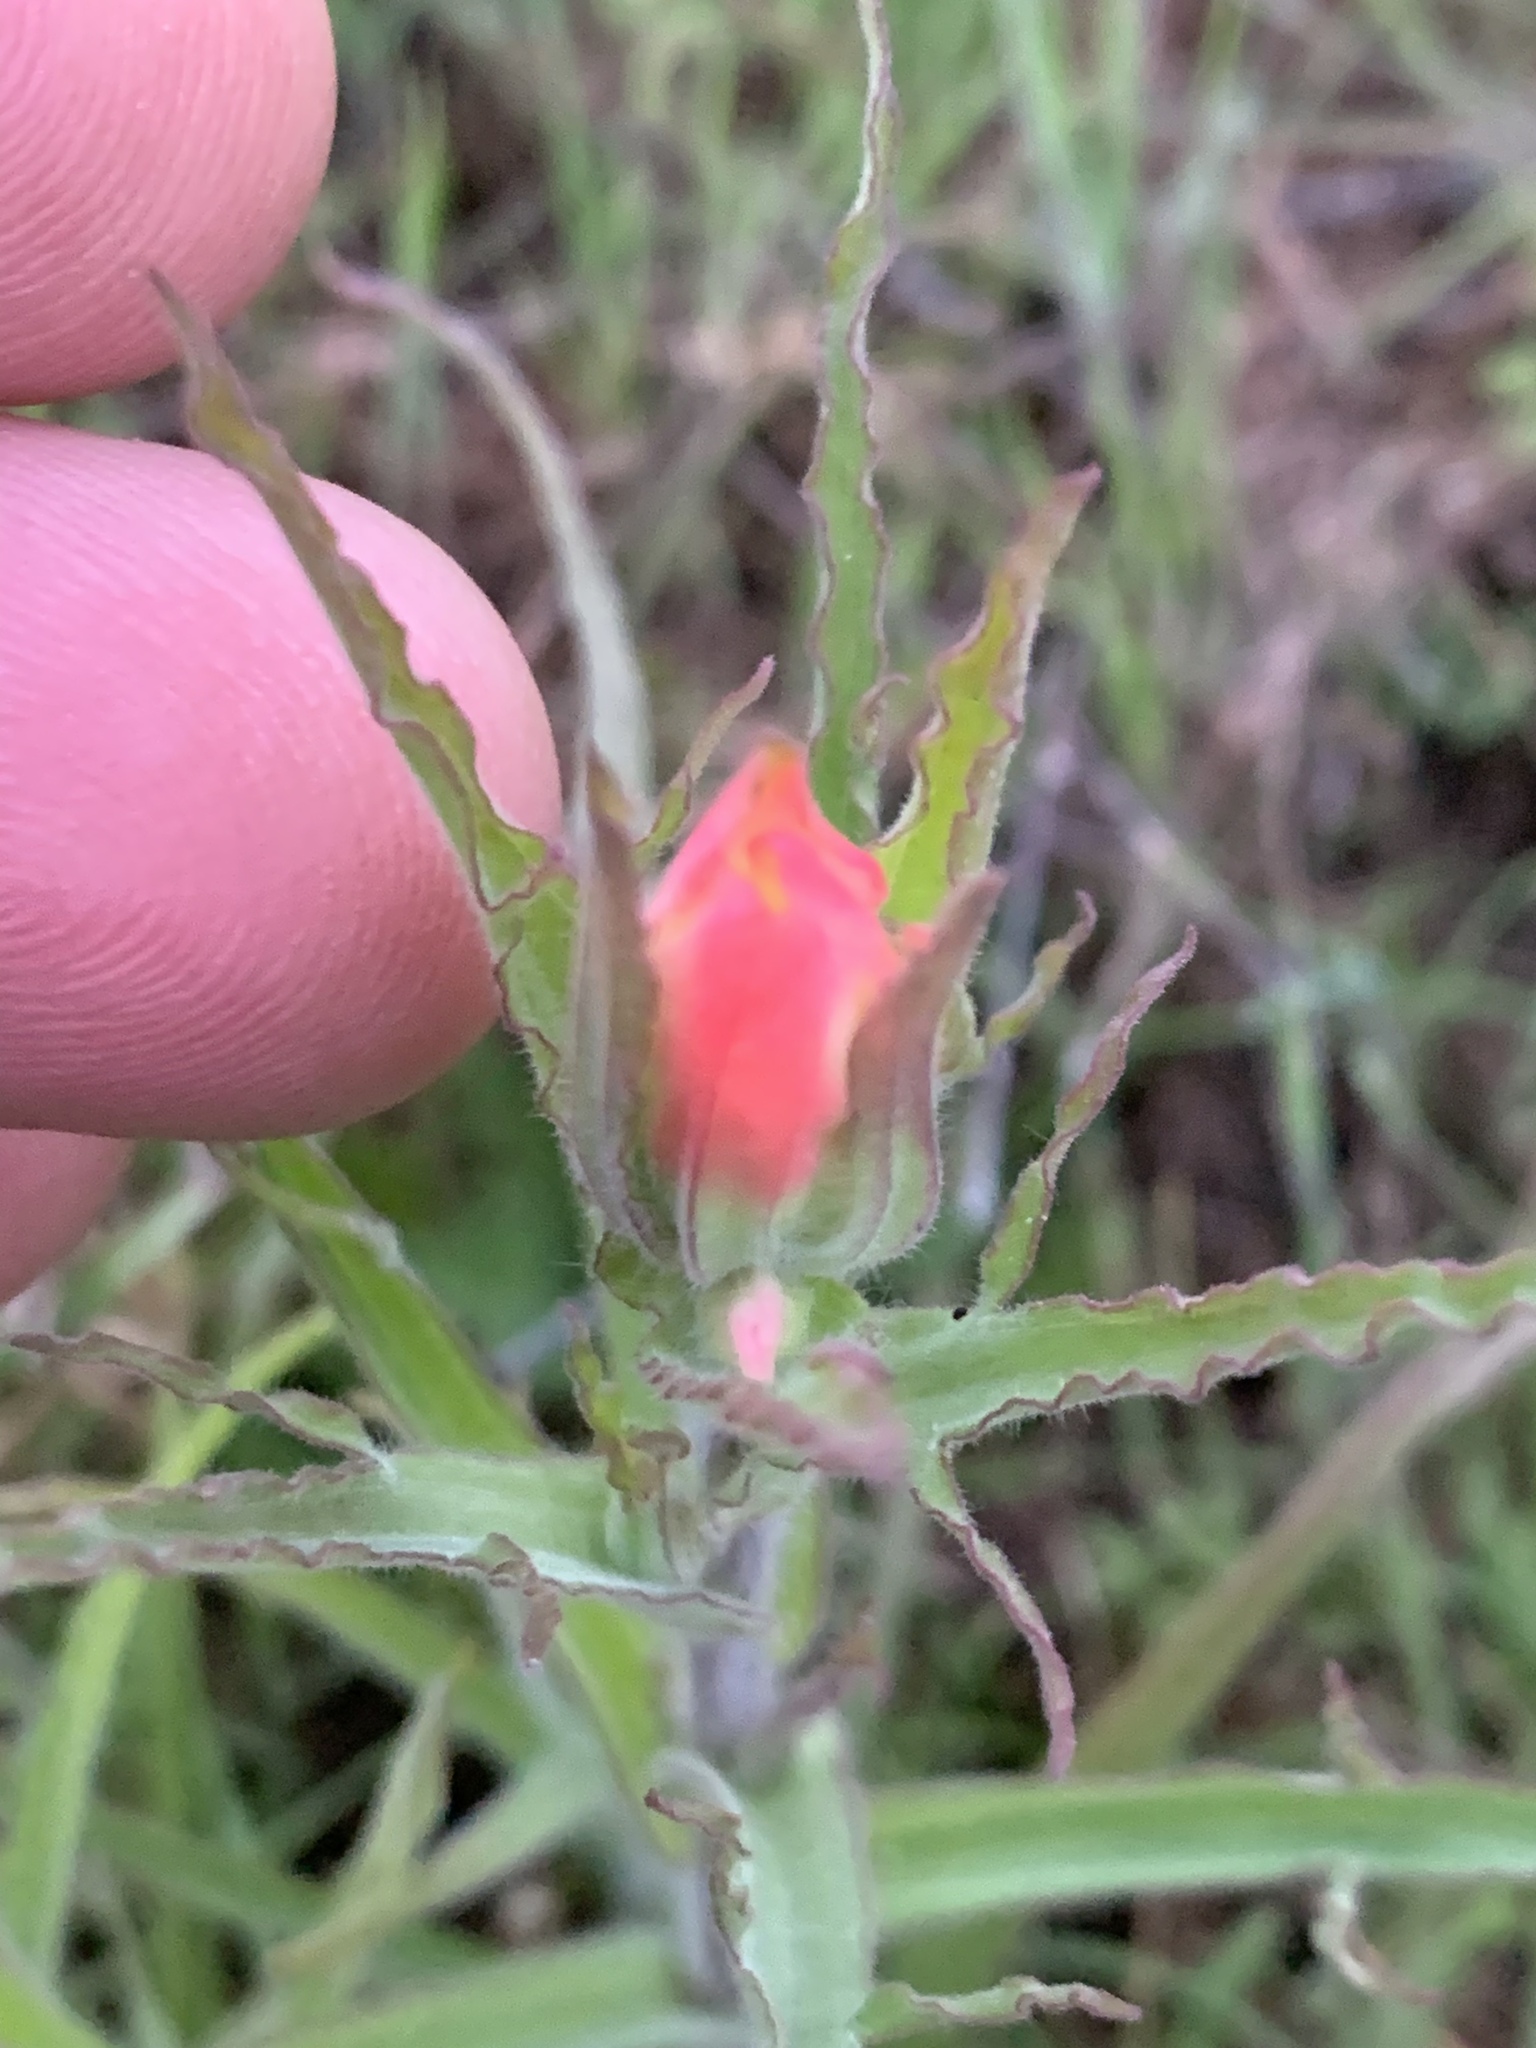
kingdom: Plantae
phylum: Tracheophyta
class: Magnoliopsida
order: Lamiales
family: Orobanchaceae
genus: Castilleja
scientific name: Castilleja indivisa
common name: Texas paintbrush
